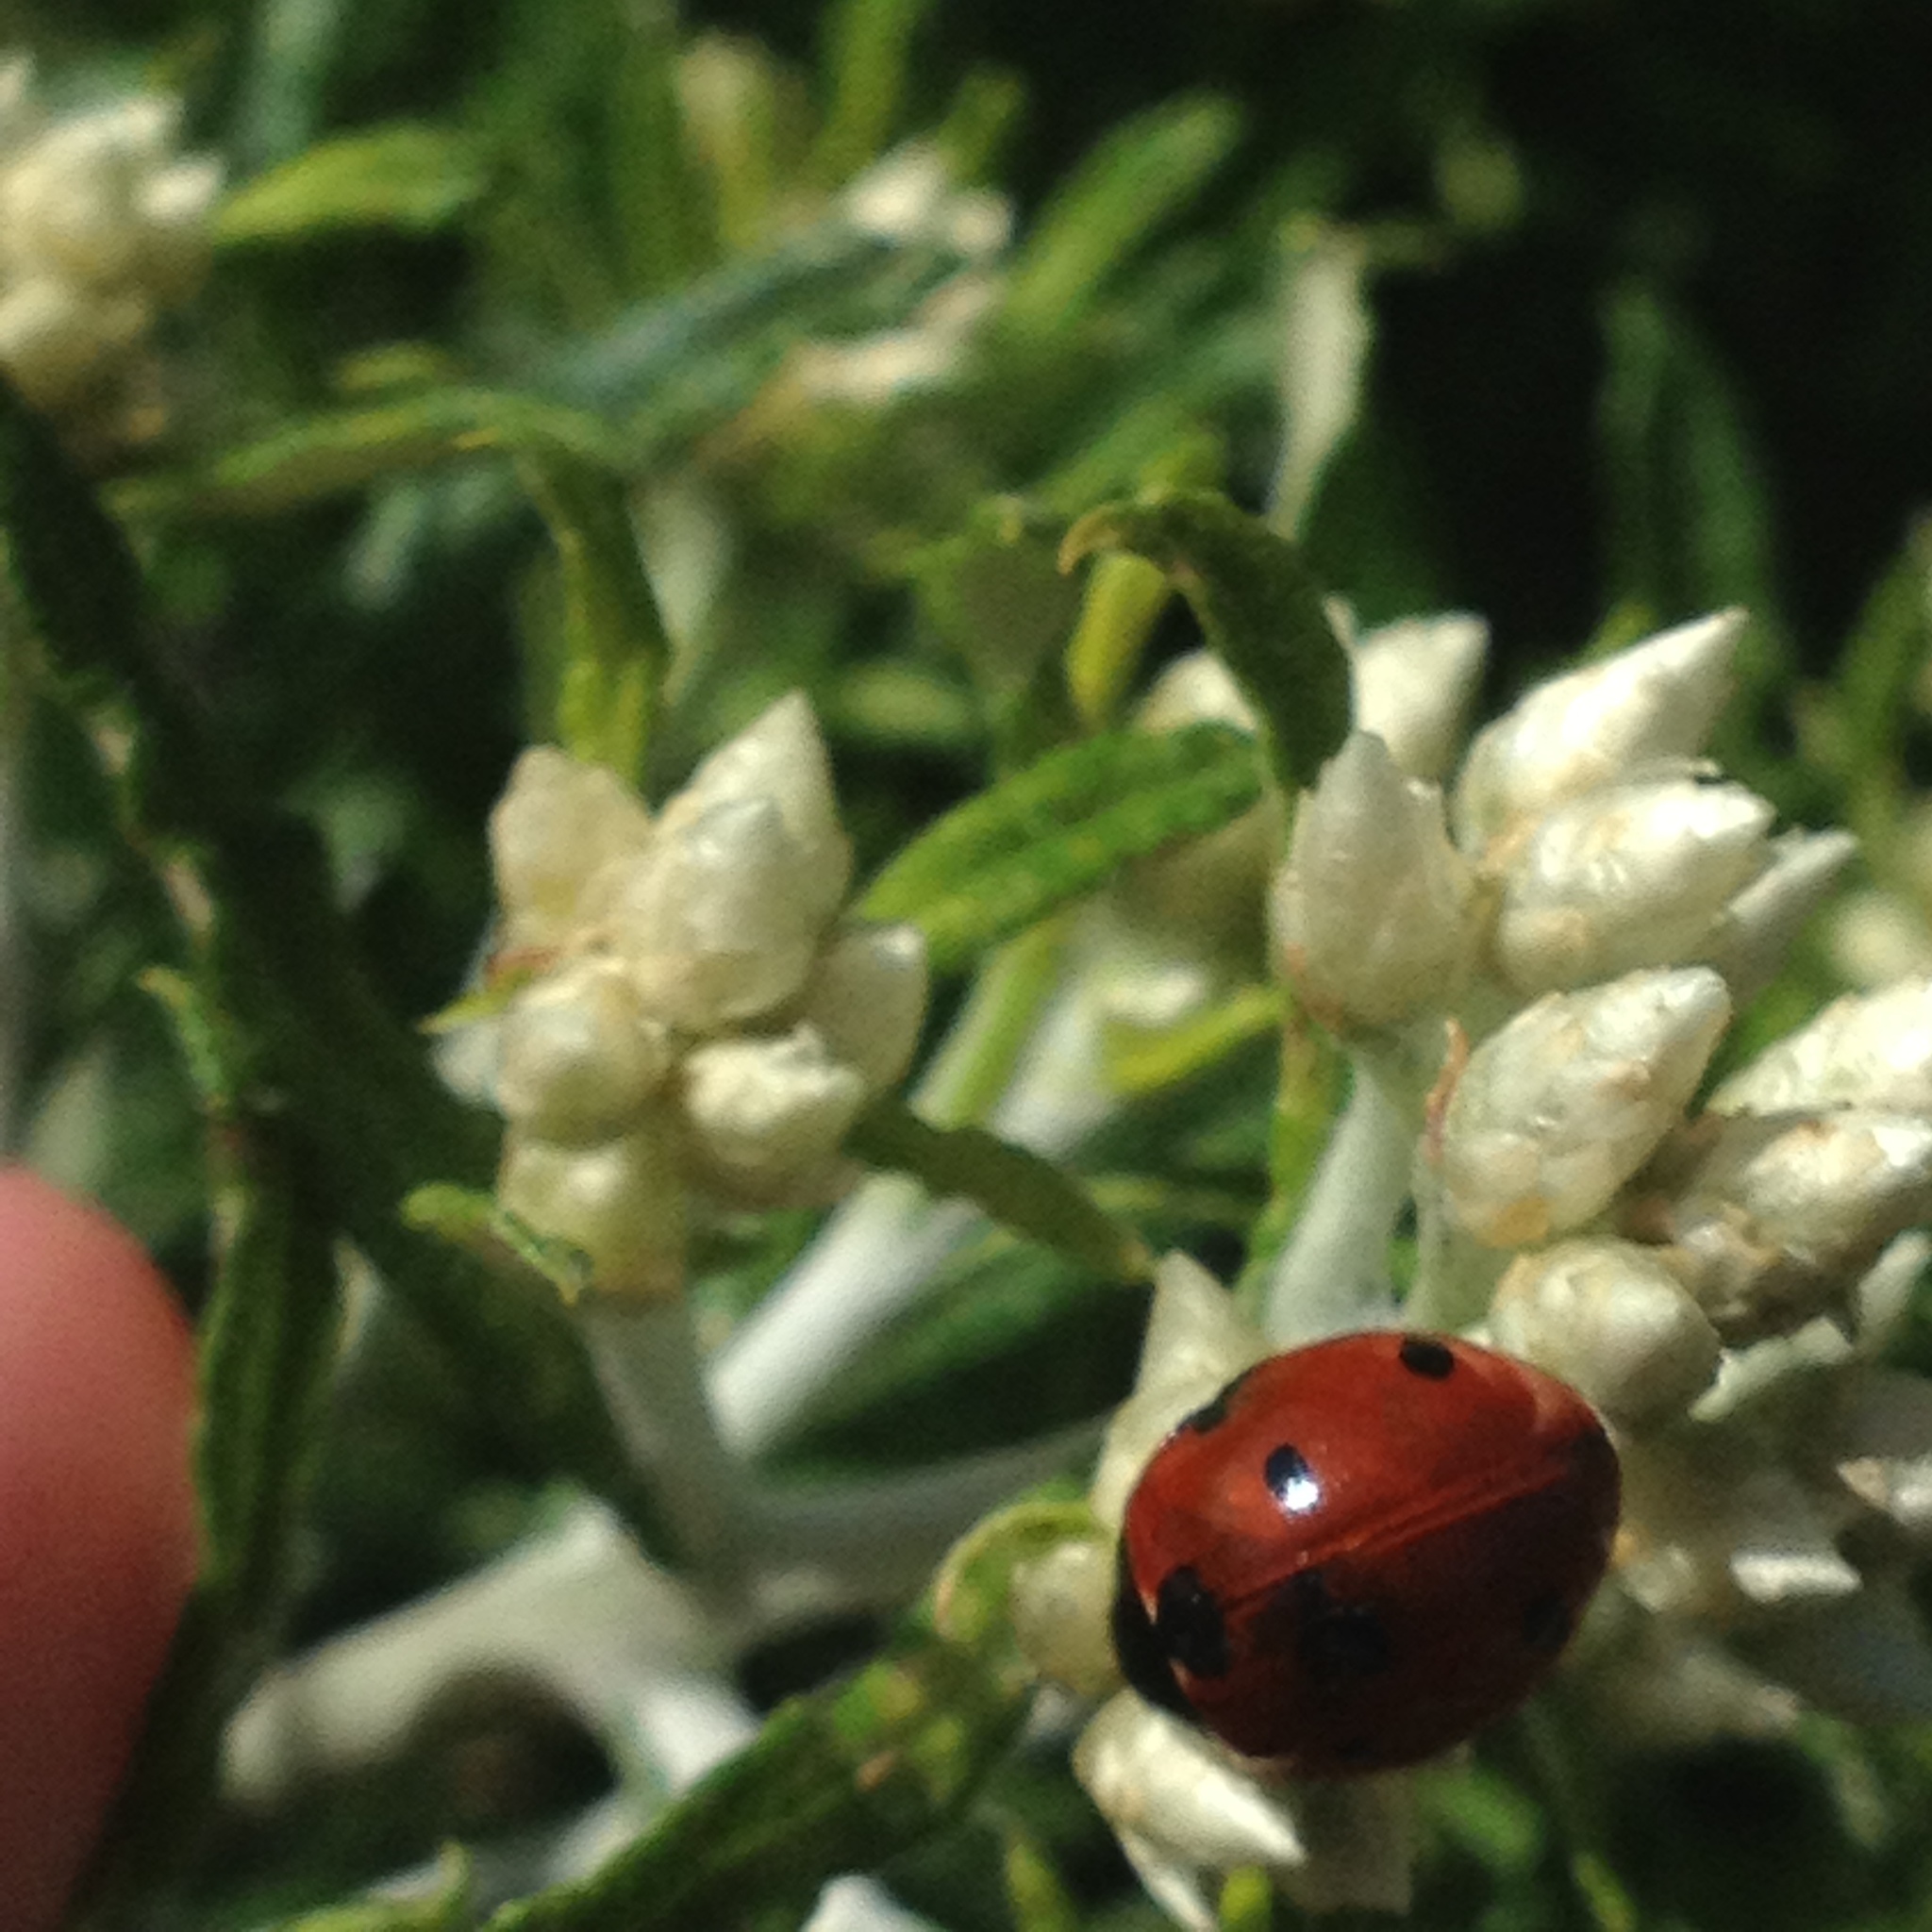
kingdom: Animalia
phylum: Arthropoda
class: Insecta
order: Coleoptera
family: Coccinellidae
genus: Coccinella
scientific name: Coccinella septempunctata
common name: Sevenspotted lady beetle
